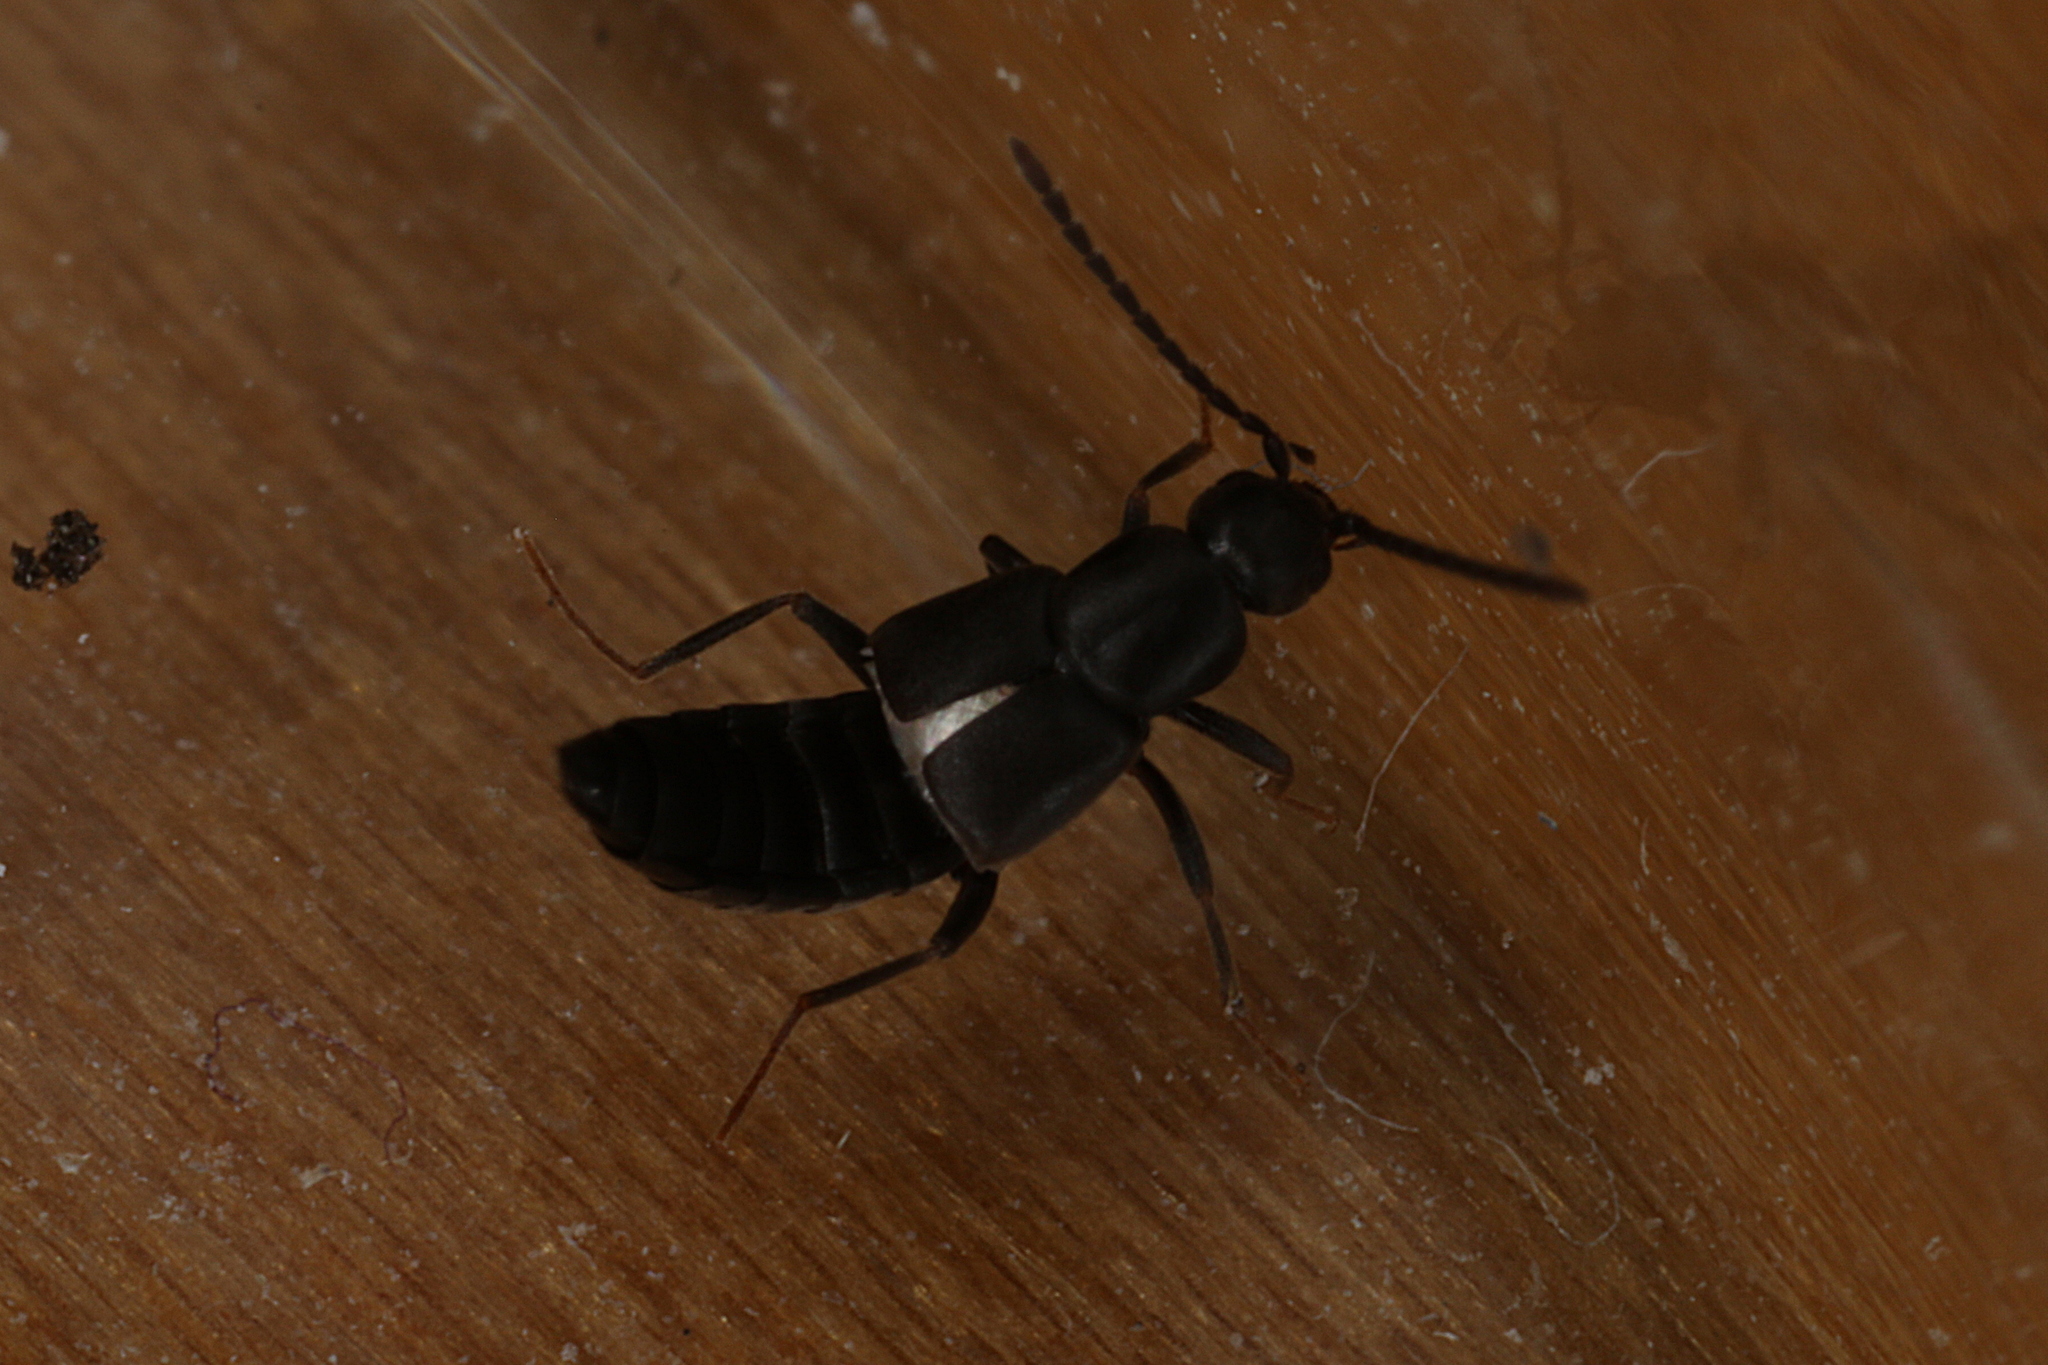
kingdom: Animalia
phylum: Arthropoda
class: Insecta
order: Coleoptera
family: Staphylinidae
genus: Thinonoma
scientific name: Thinonoma atra
